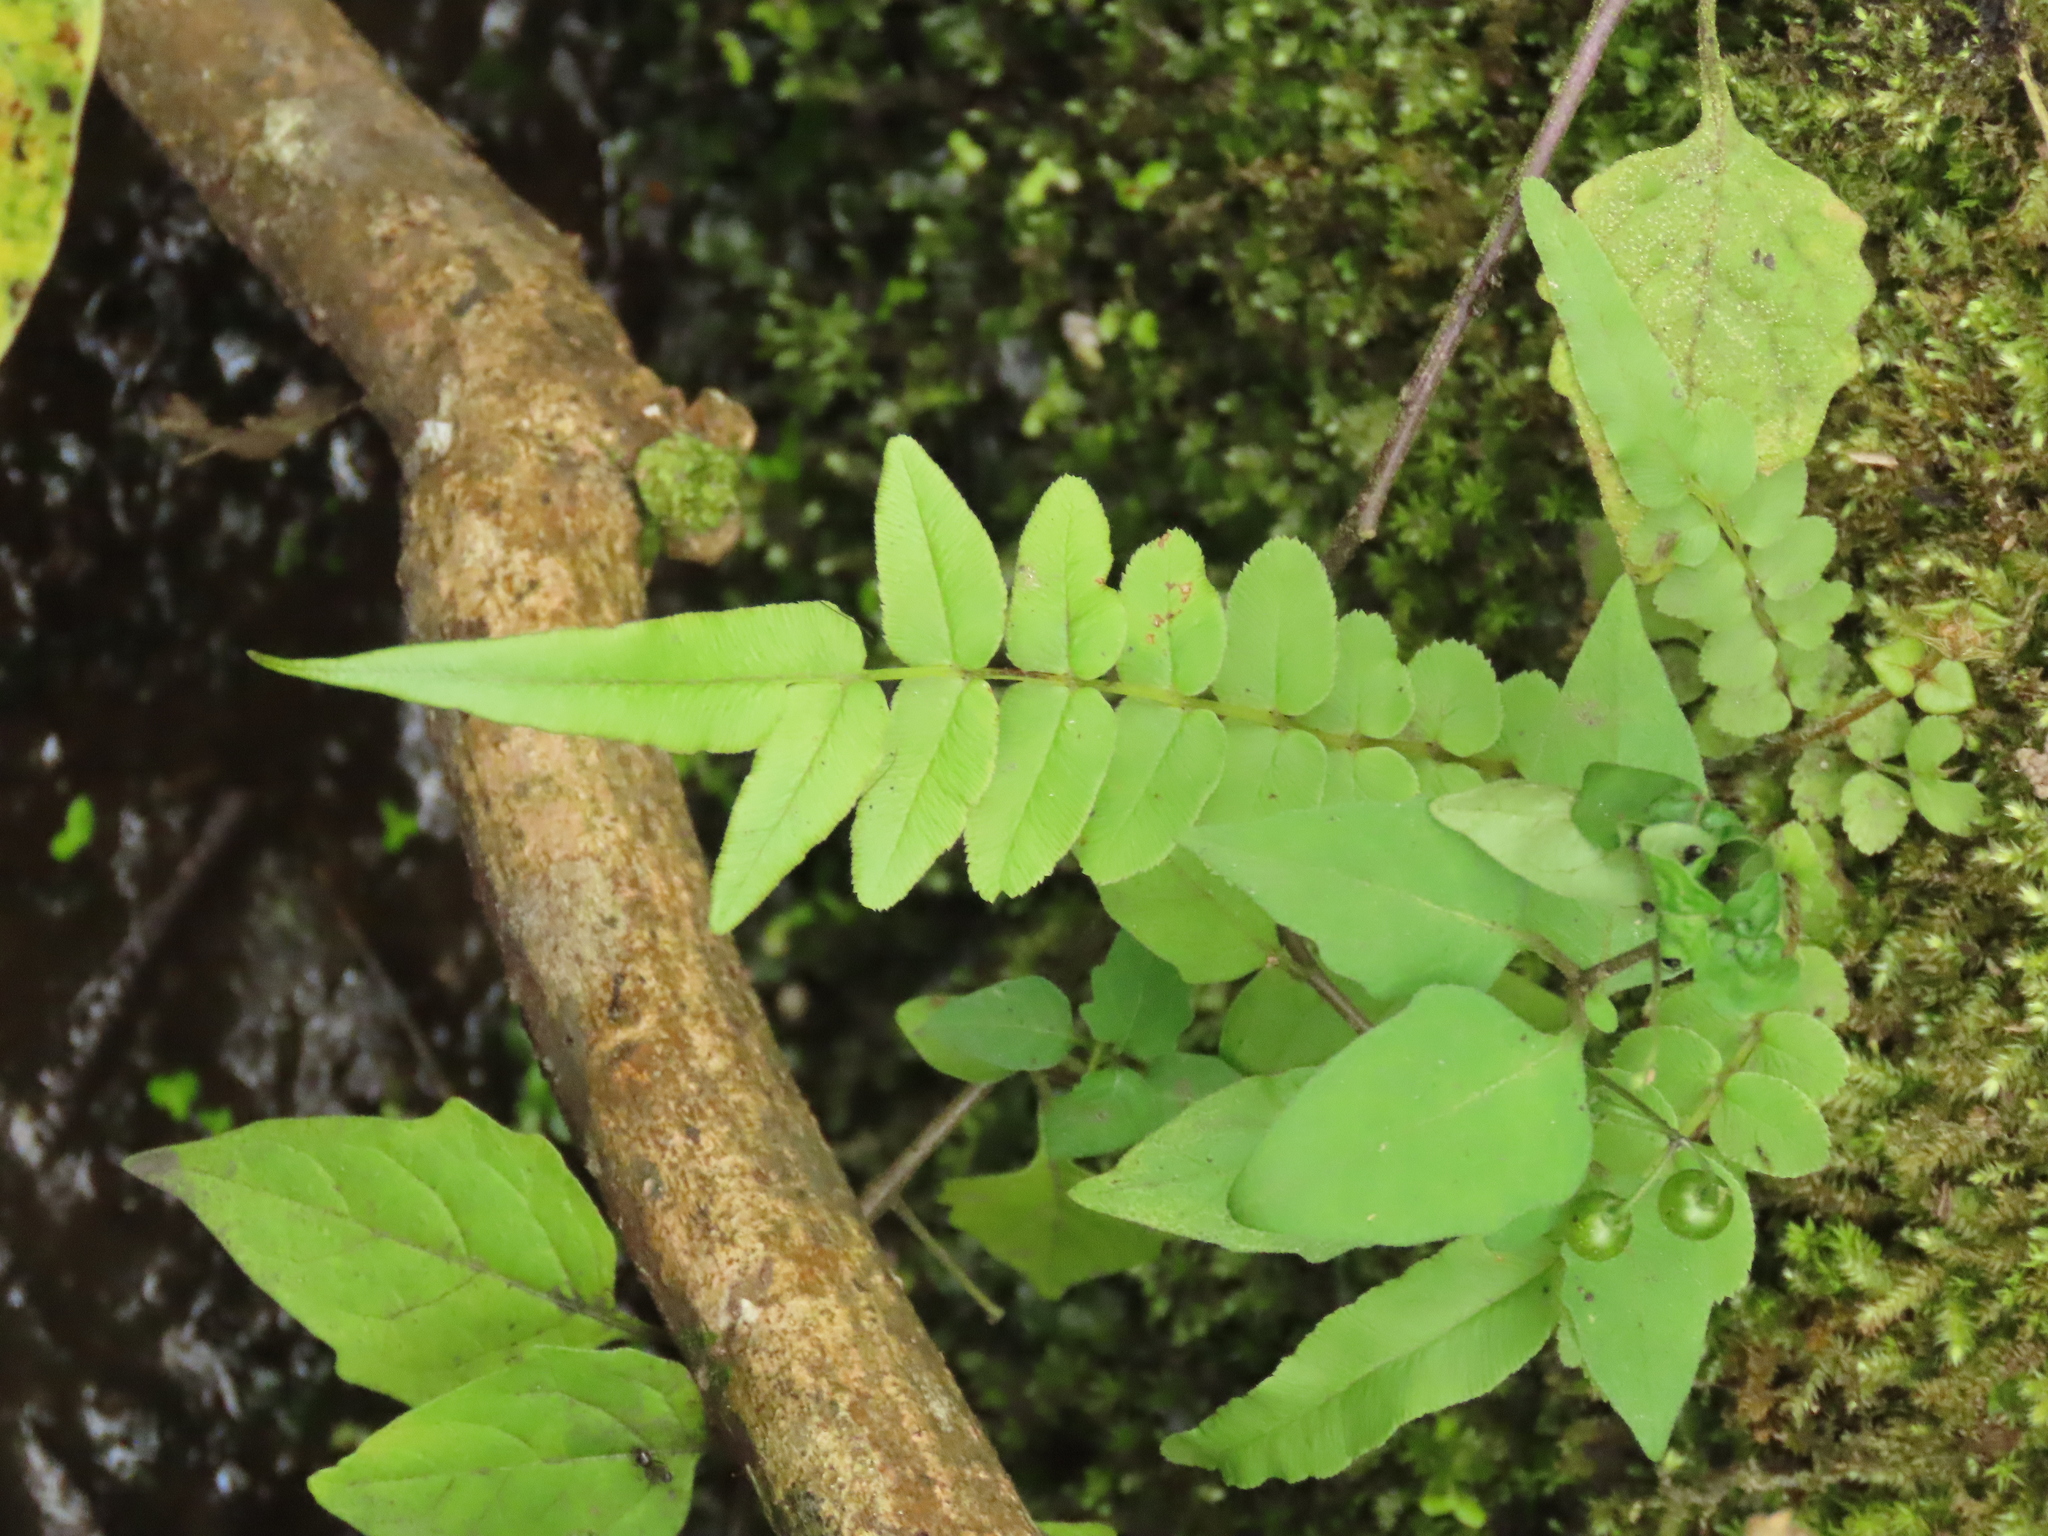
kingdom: Plantae
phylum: Tracheophyta
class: Polypodiopsida
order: Polypodiales
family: Pteridaceae
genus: Pteris
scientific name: Pteris vittata
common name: Ladder brake
